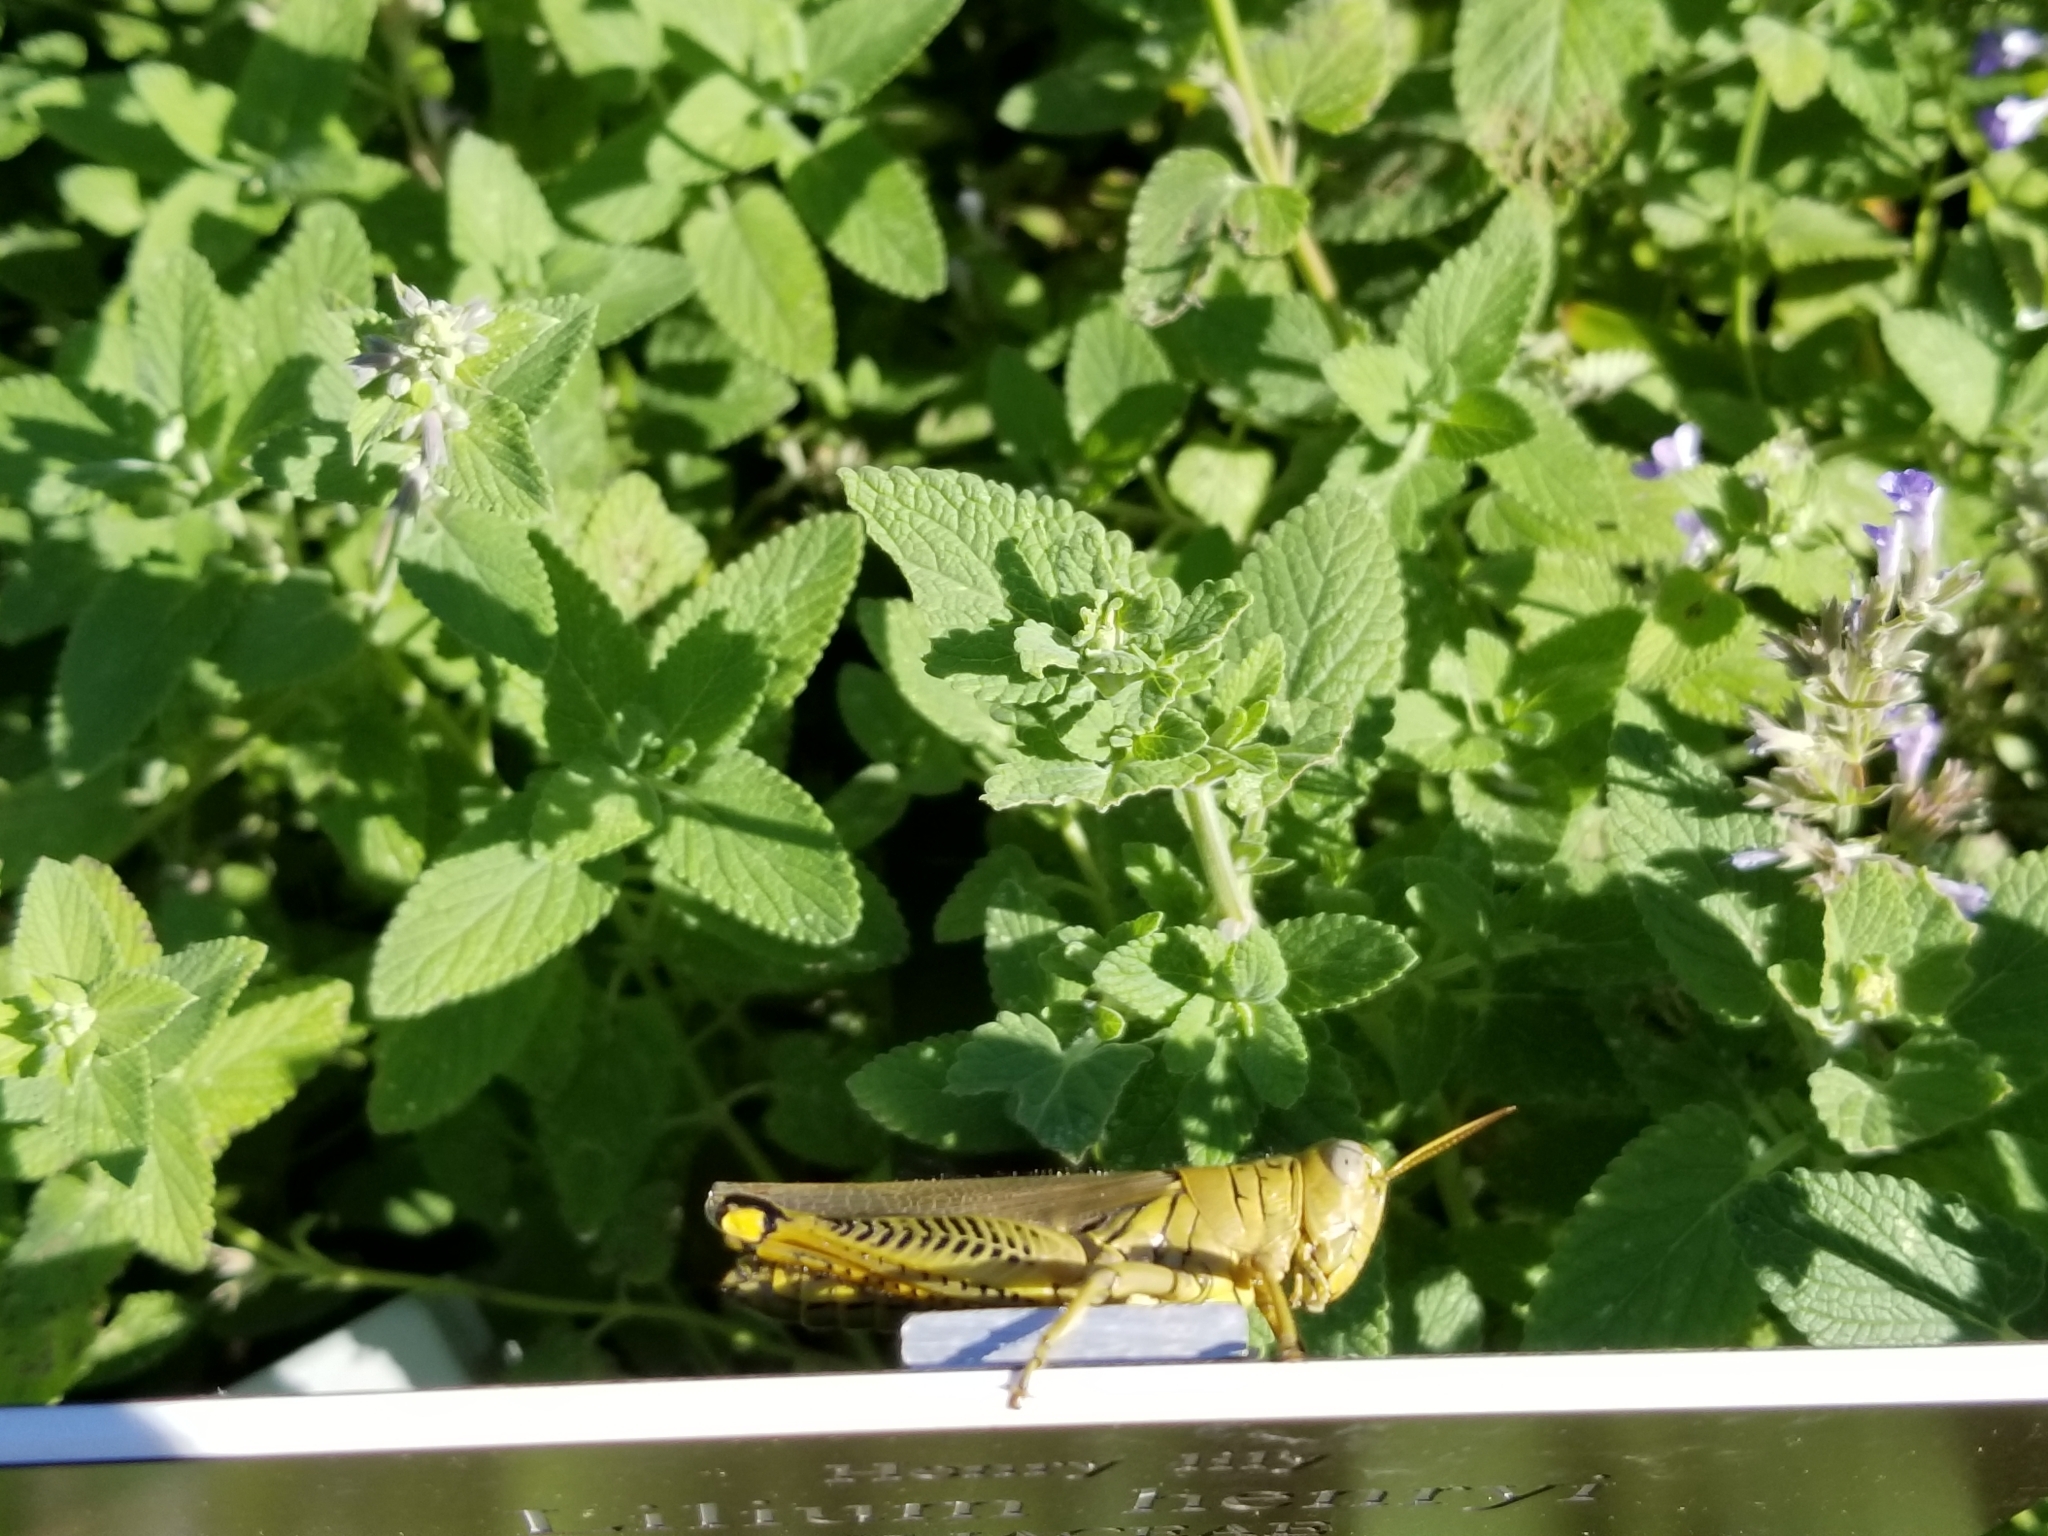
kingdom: Animalia
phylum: Arthropoda
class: Insecta
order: Orthoptera
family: Acrididae
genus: Melanoplus
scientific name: Melanoplus differentialis
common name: Differential grasshopper
